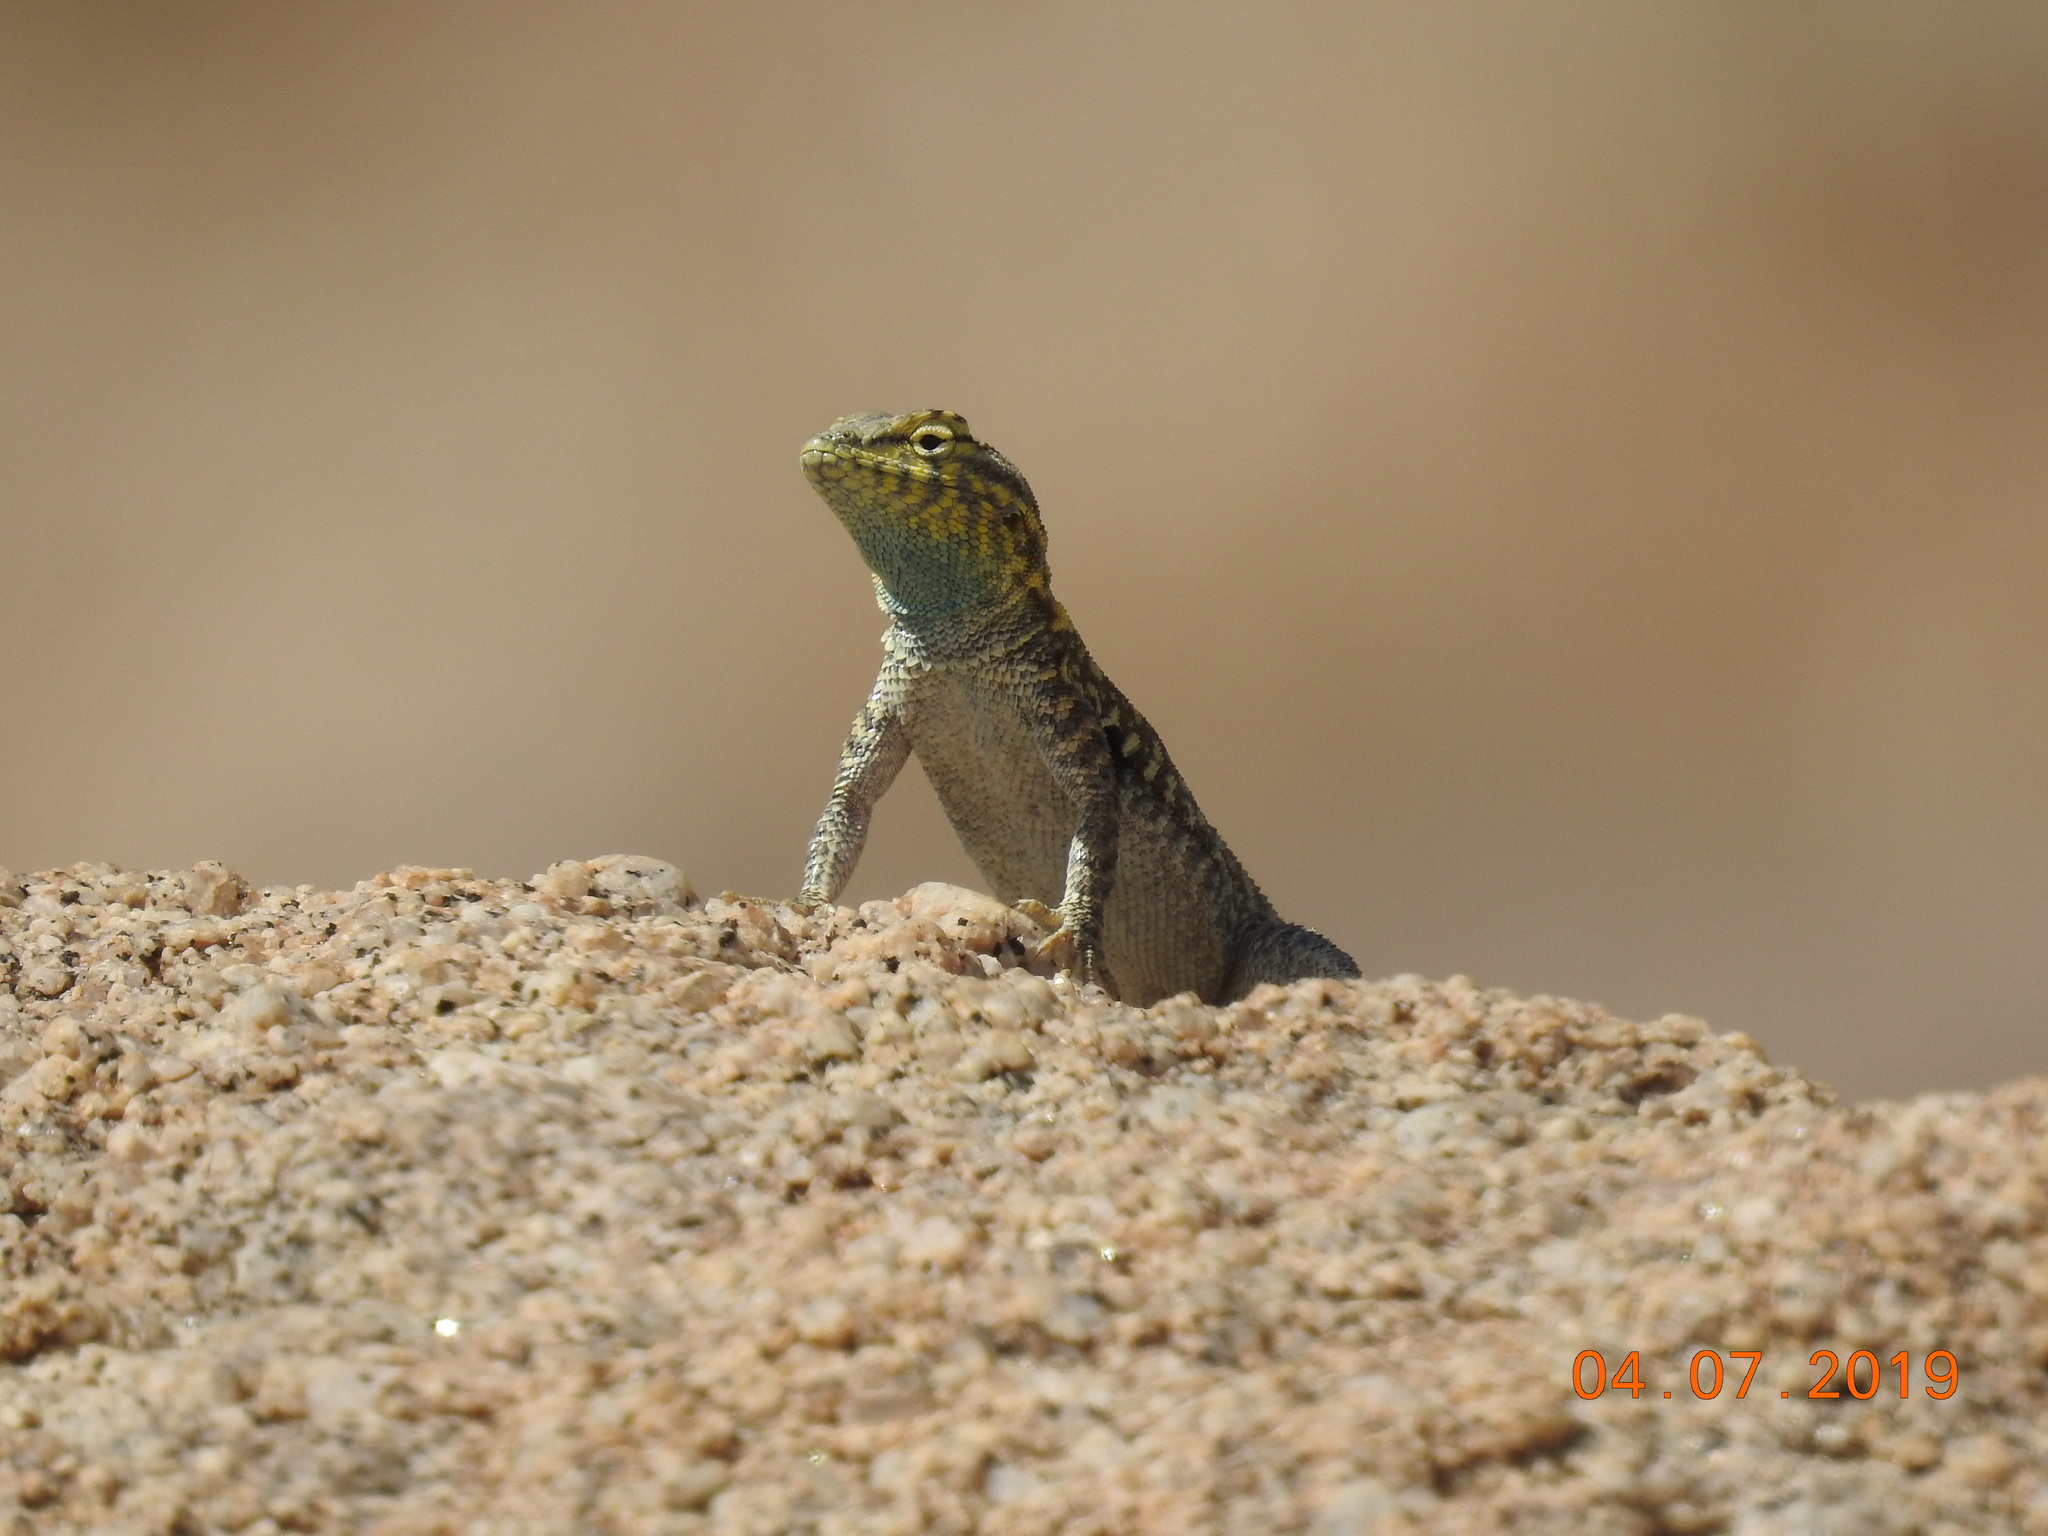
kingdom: Animalia
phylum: Chordata
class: Squamata
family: Phrynosomatidae
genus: Uta
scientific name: Uta stansburiana
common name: Side-blotched lizard
